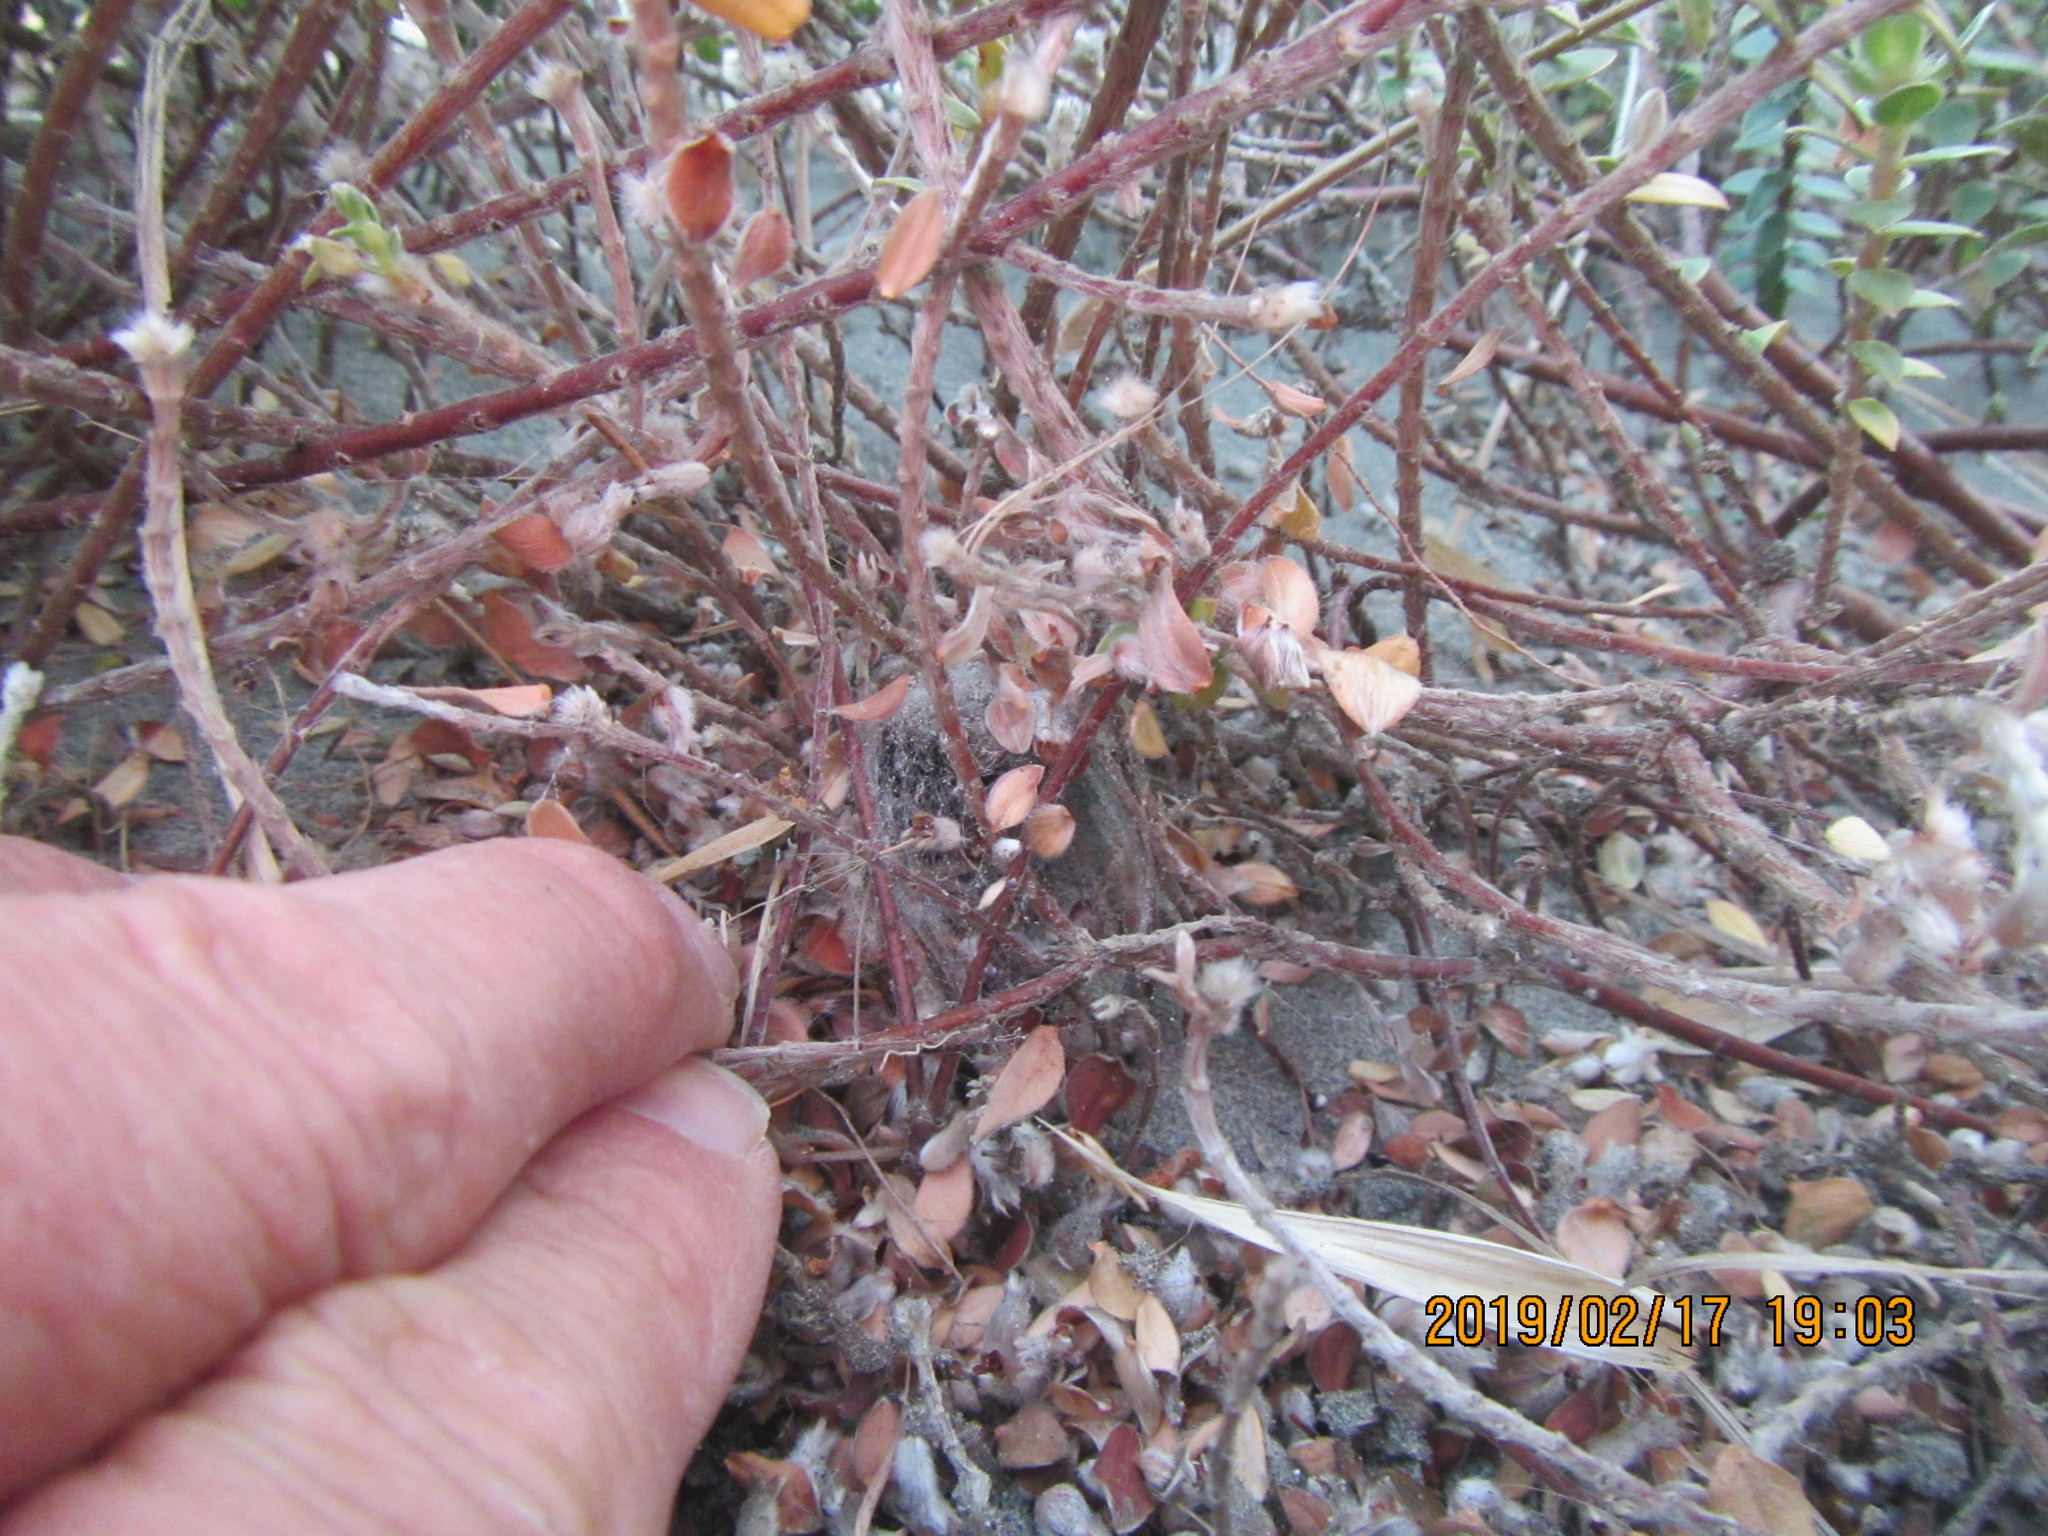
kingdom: Animalia
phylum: Arthropoda
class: Arachnida
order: Araneae
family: Theridiidae
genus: Latrodectus
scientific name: Latrodectus katipo
